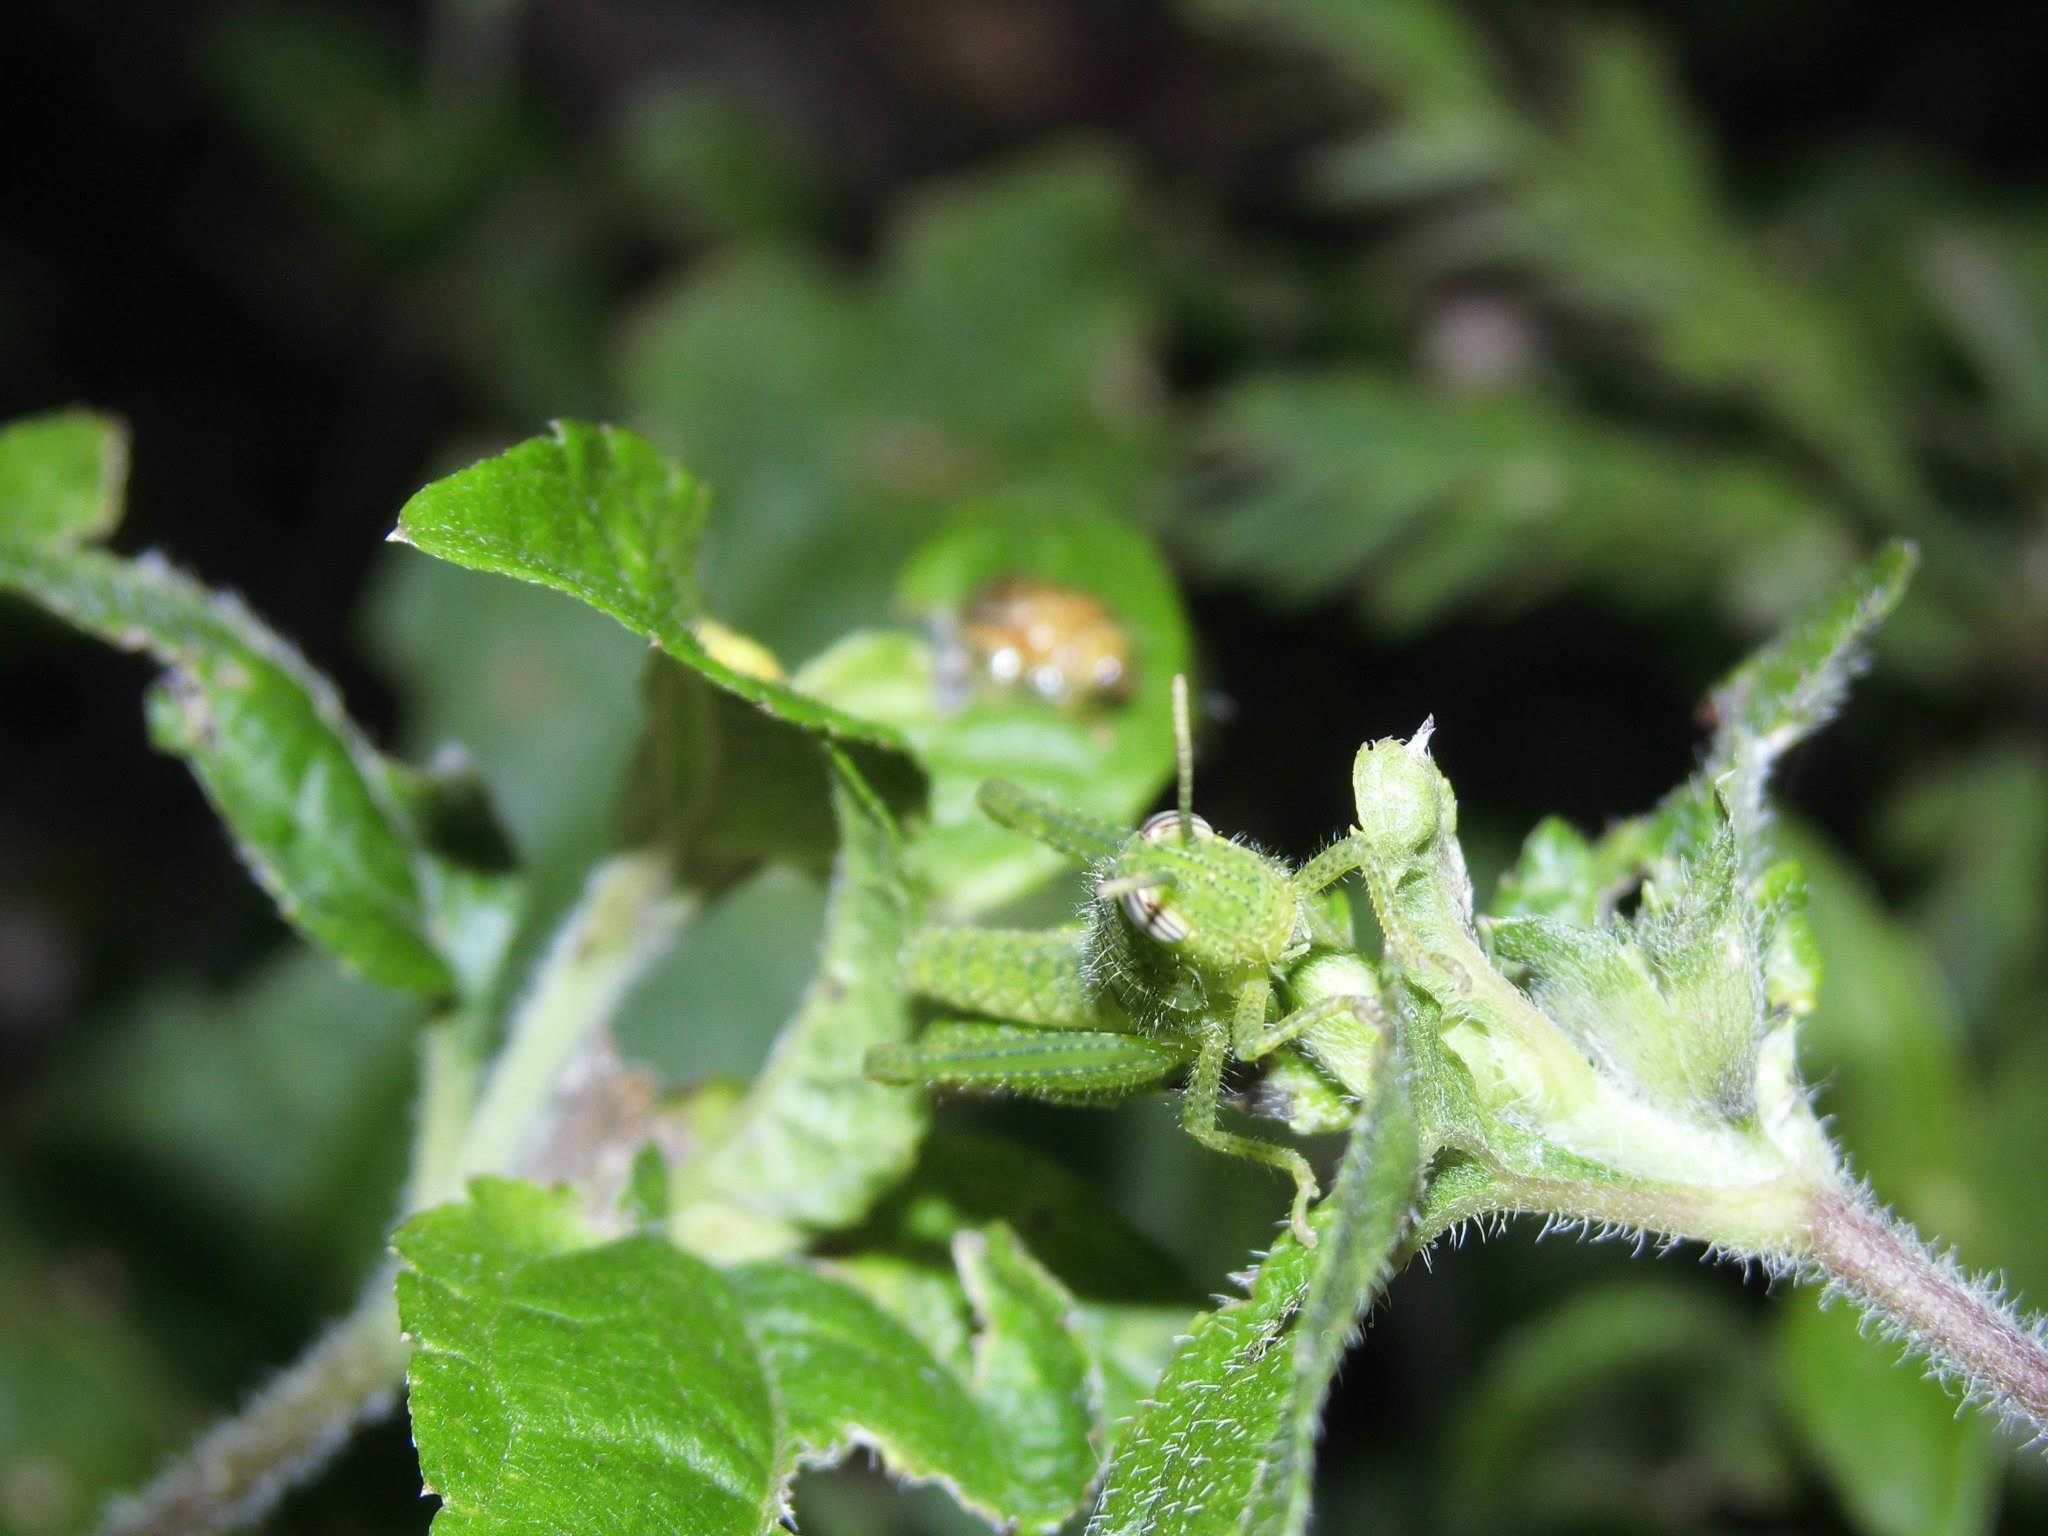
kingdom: Animalia
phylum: Arthropoda
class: Insecta
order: Orthoptera
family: Acrididae
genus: Schistocerca
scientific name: Schistocerca flavofasciata
